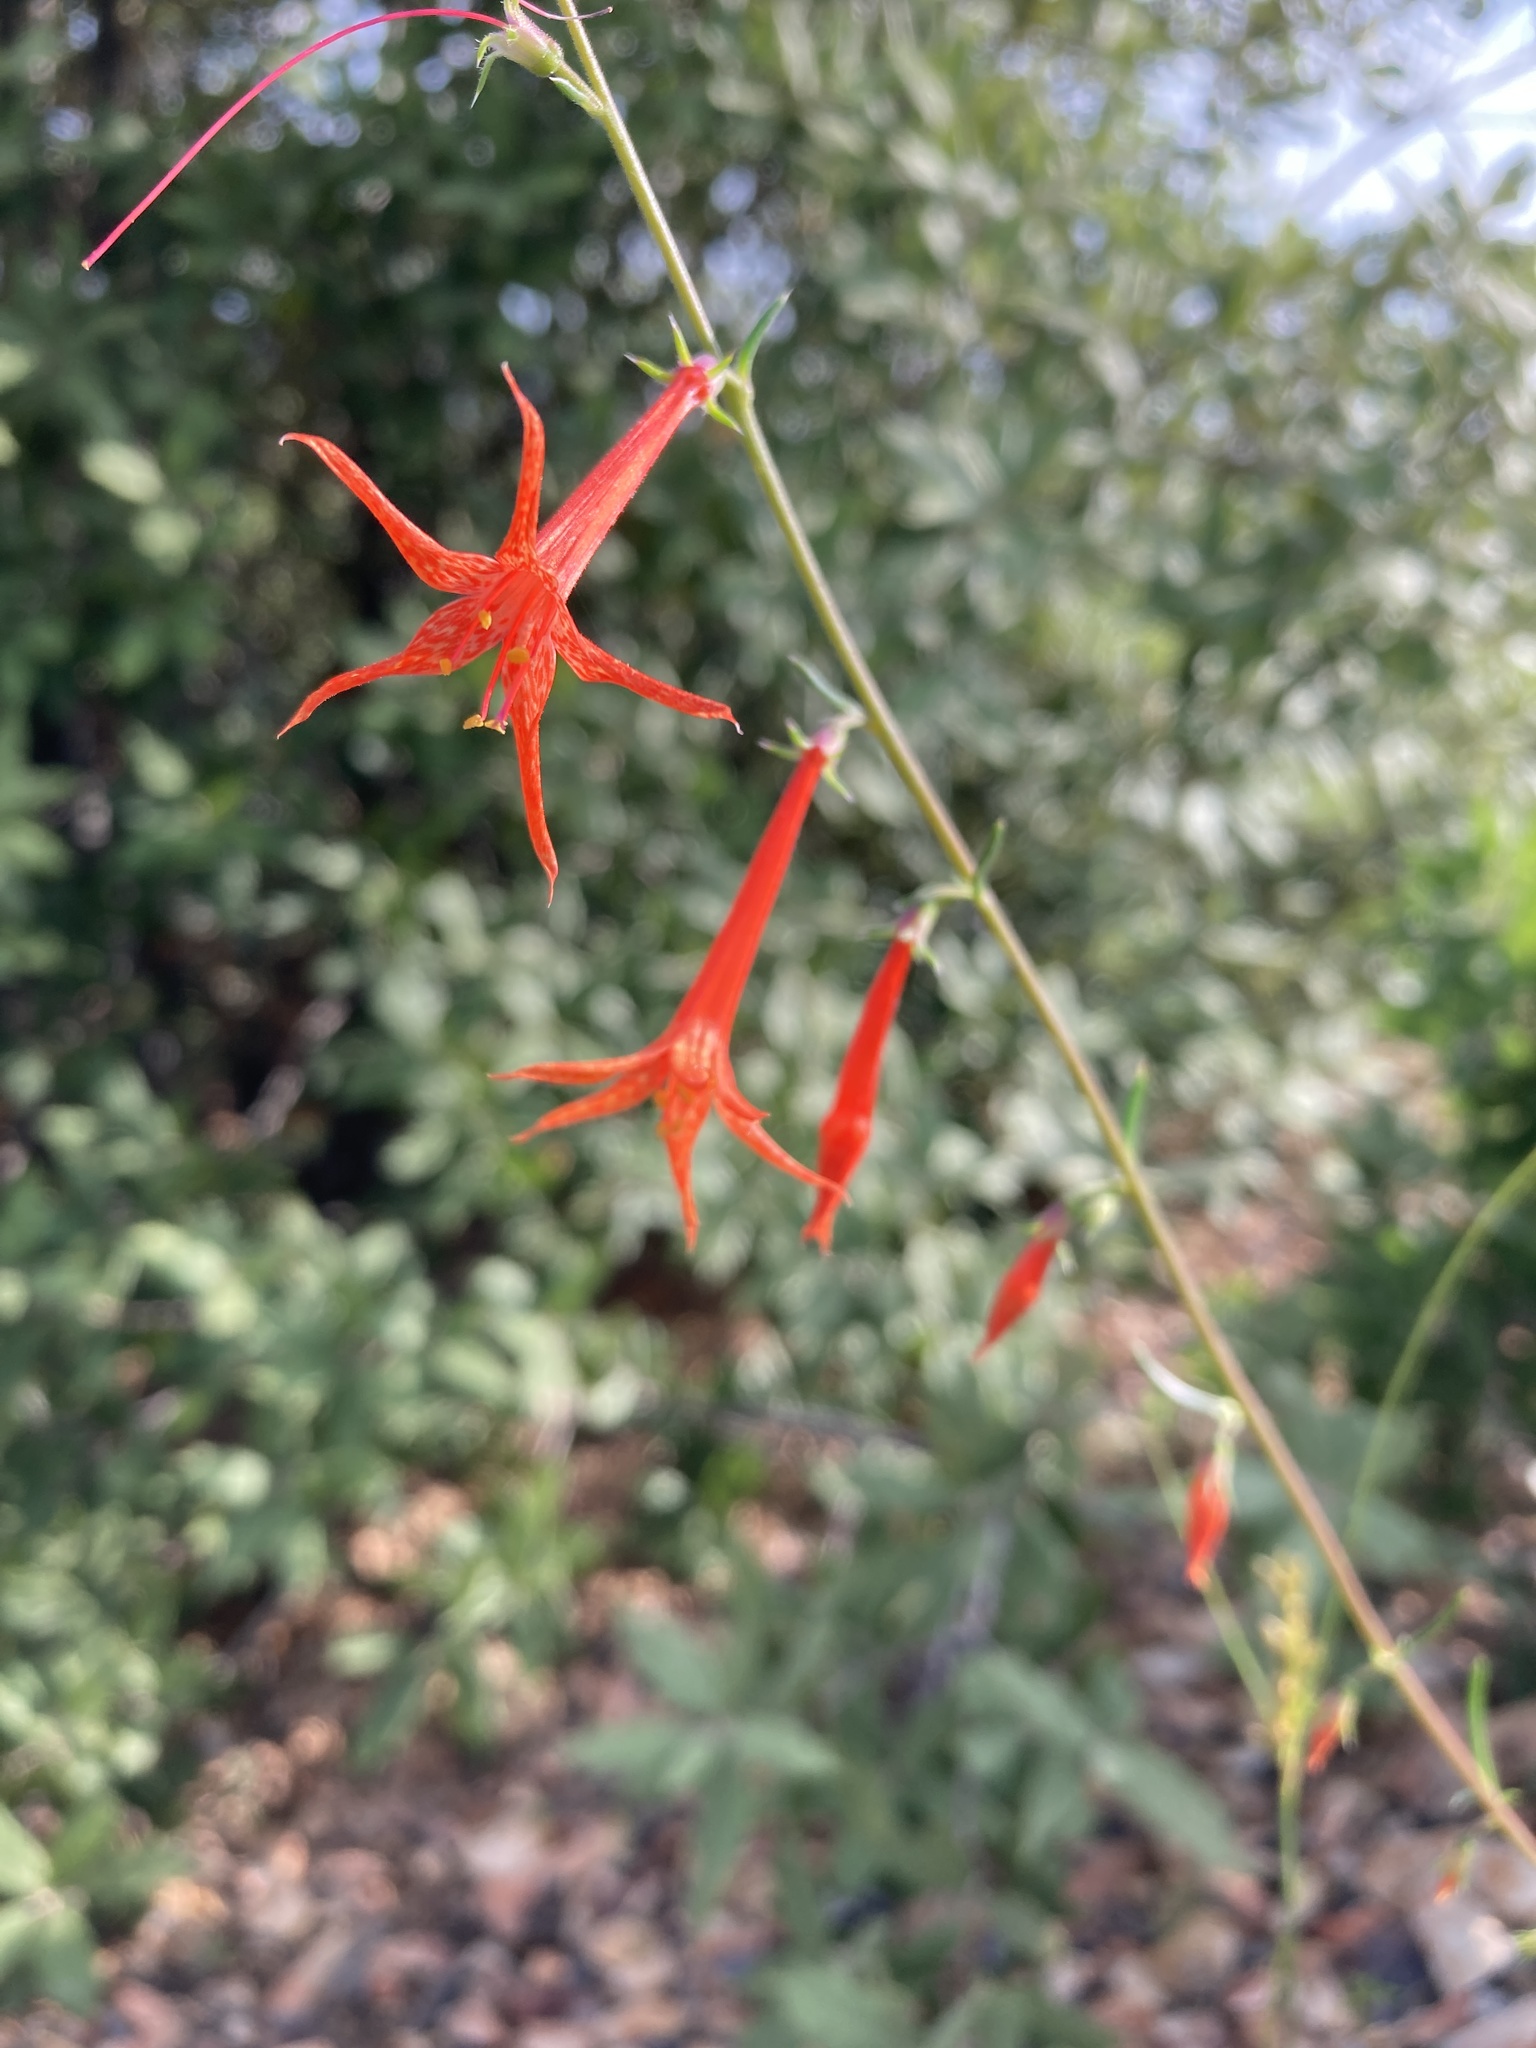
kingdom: Plantae
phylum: Tracheophyta
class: Magnoliopsida
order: Ericales
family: Polemoniaceae
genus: Ipomopsis
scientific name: Ipomopsis aggregata
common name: Scarlet gilia
